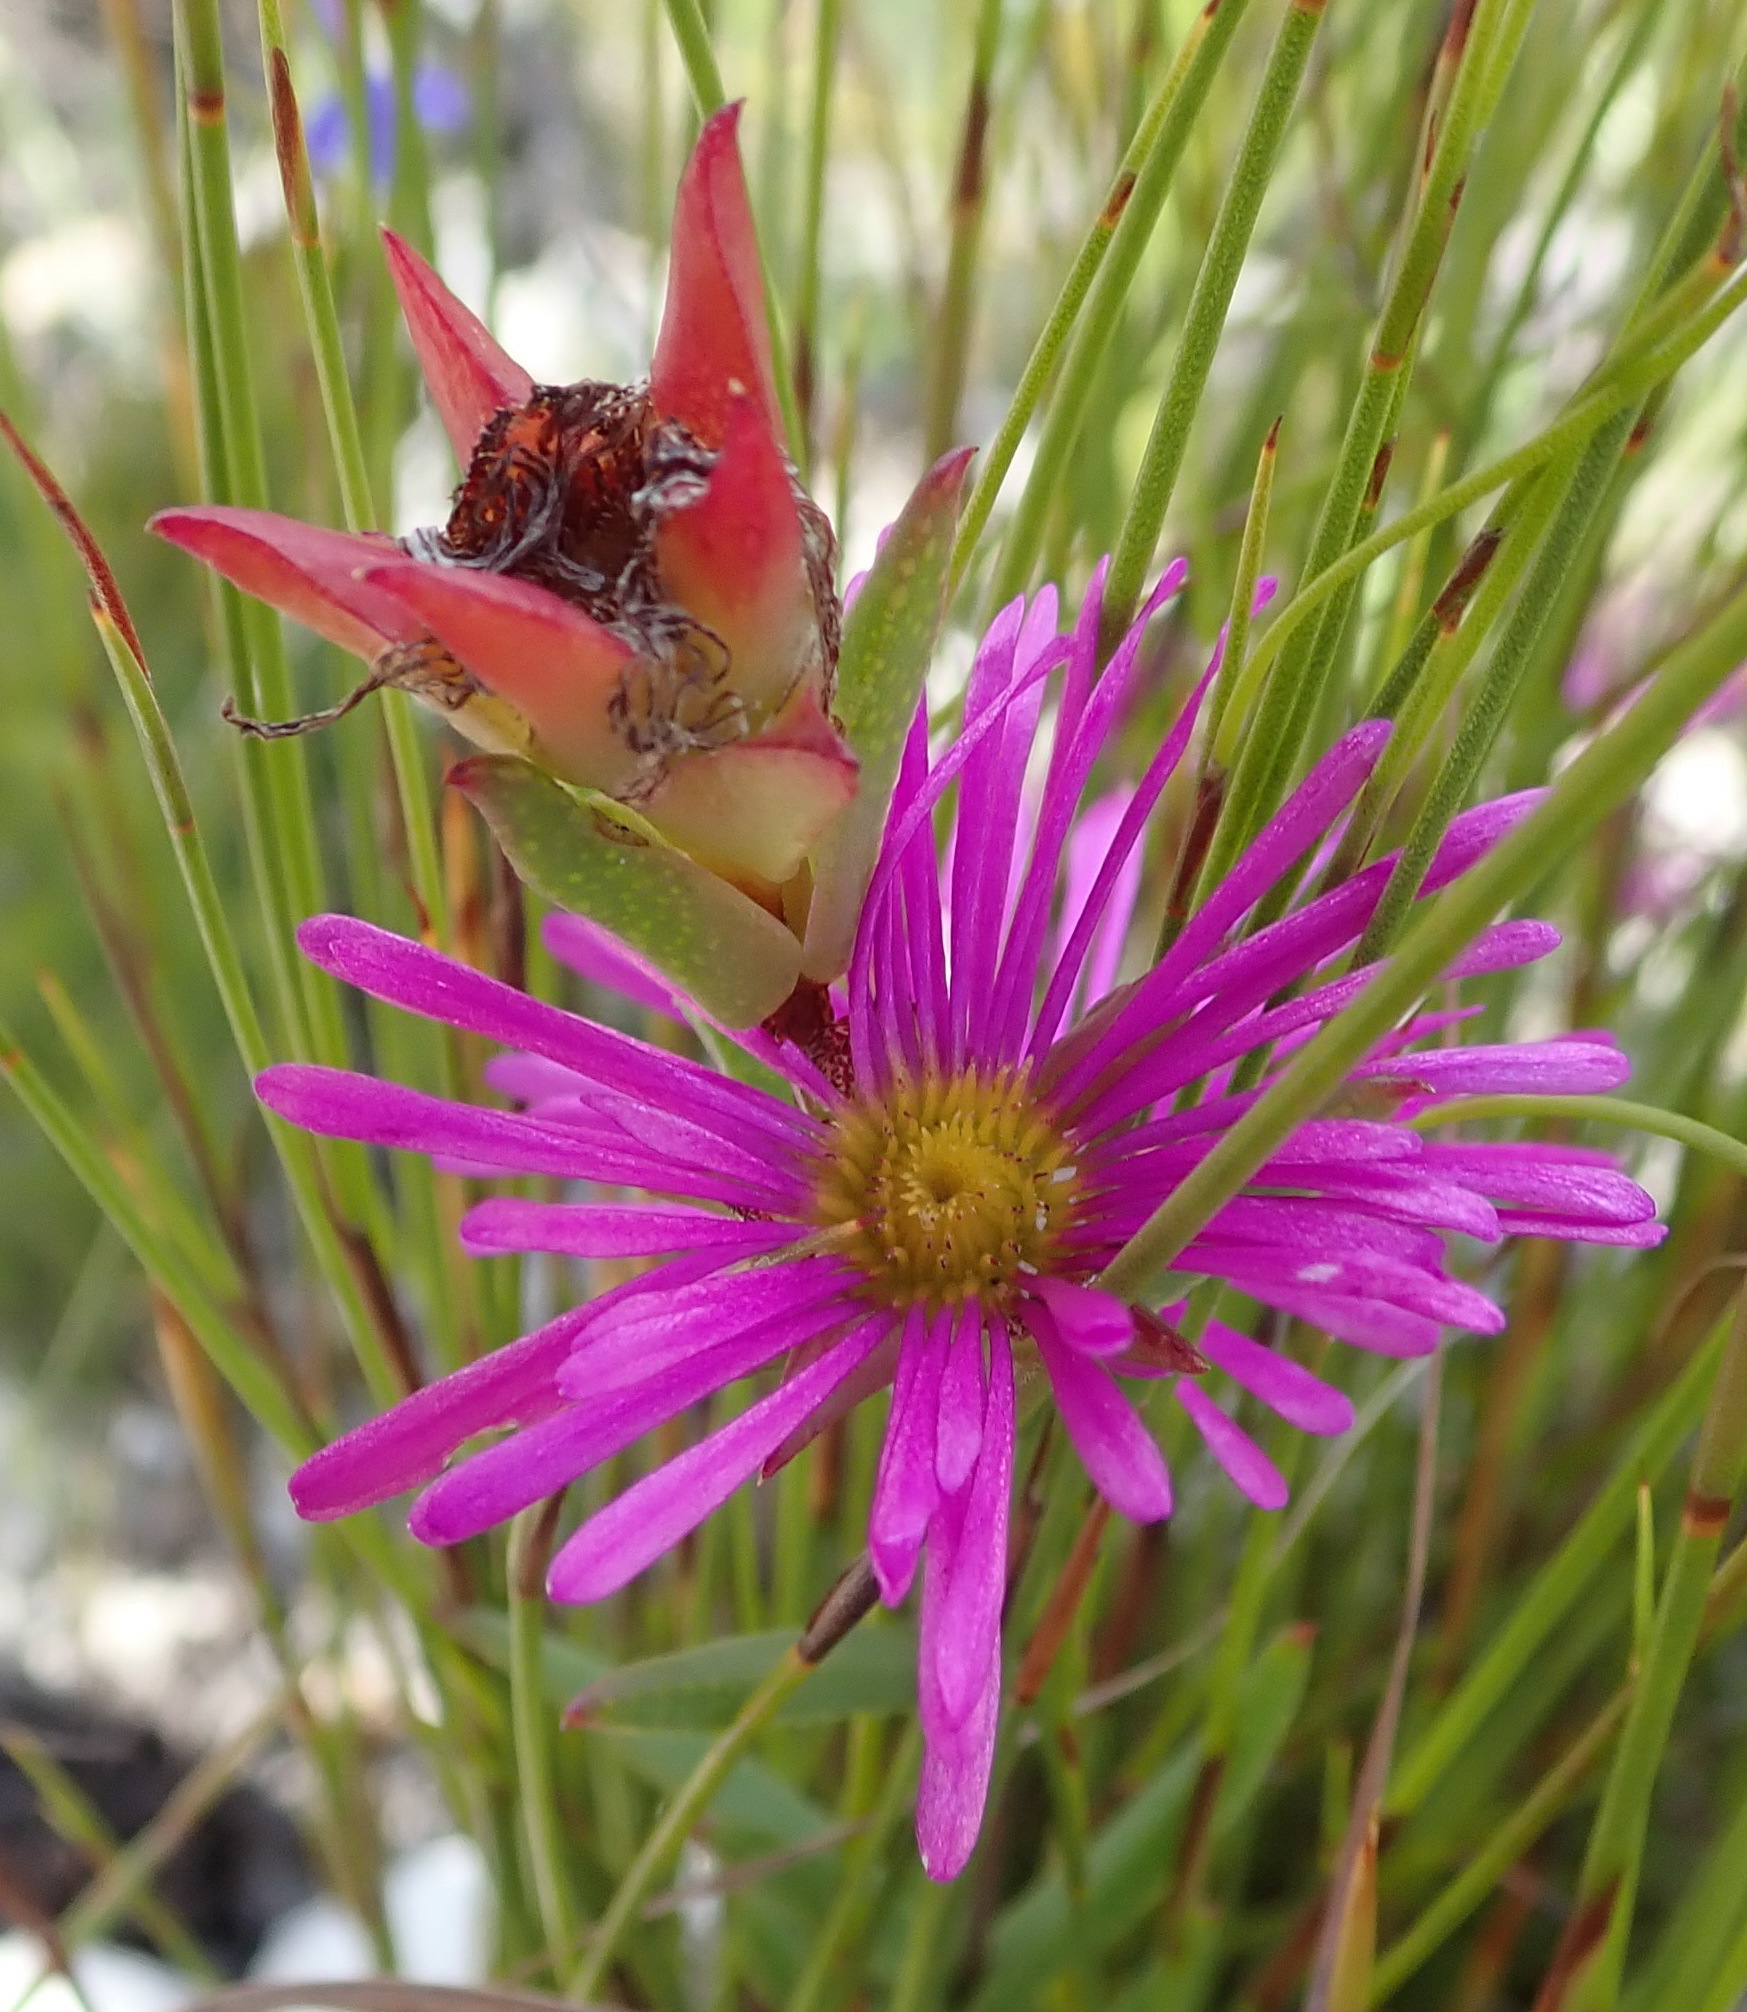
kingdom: Plantae
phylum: Tracheophyta
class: Magnoliopsida
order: Caryophyllales
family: Aizoaceae
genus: Erepsia
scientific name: Erepsia anceps
